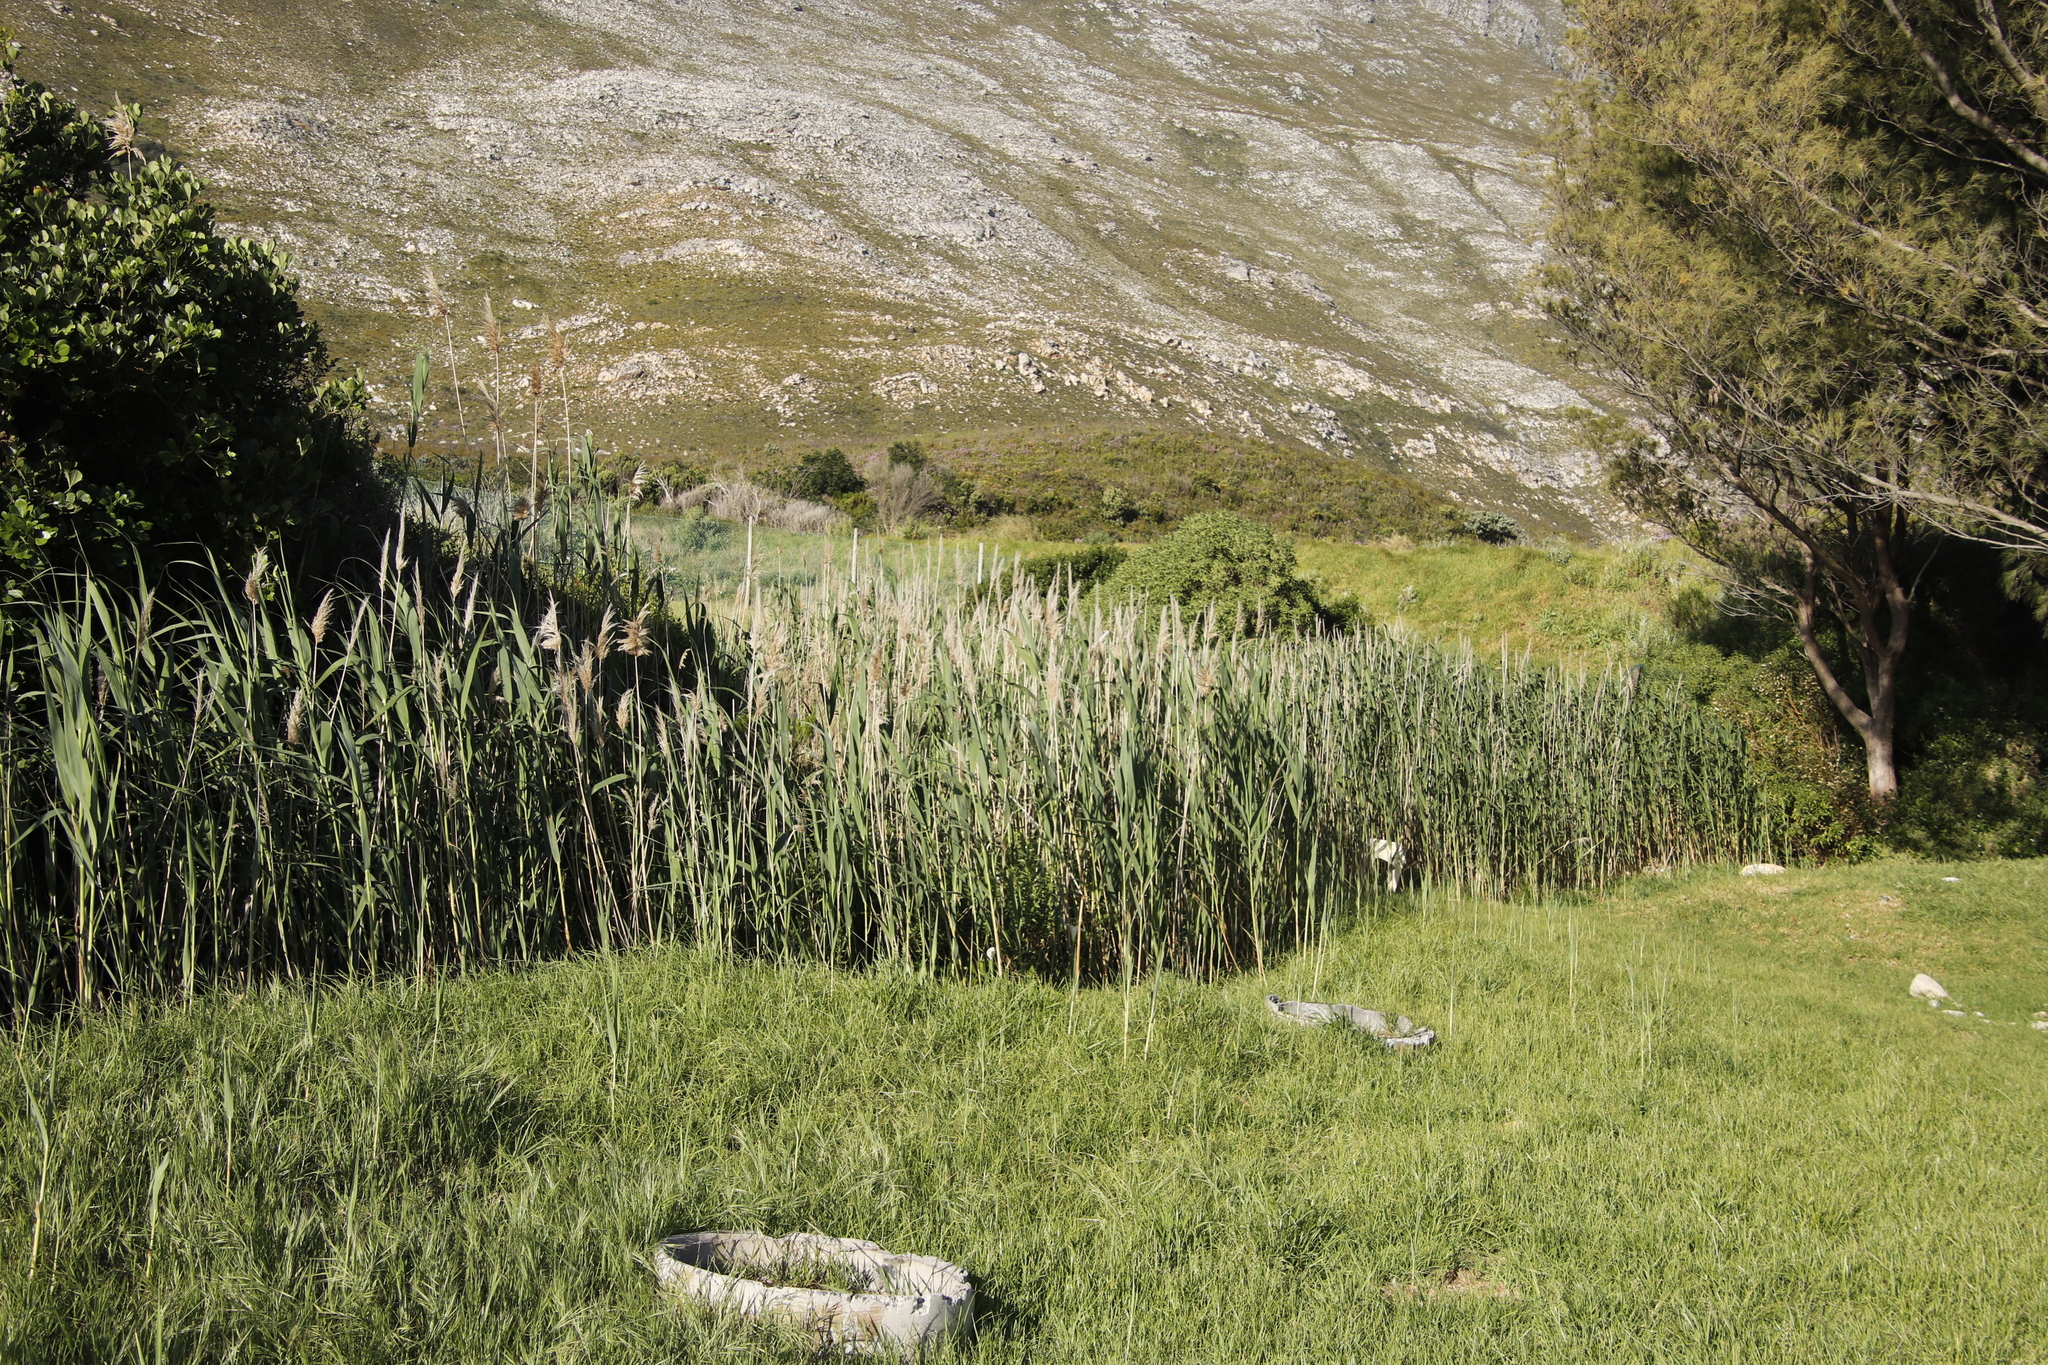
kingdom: Plantae
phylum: Tracheophyta
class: Liliopsida
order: Poales
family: Poaceae
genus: Phragmites
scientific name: Phragmites australis
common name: Common reed
